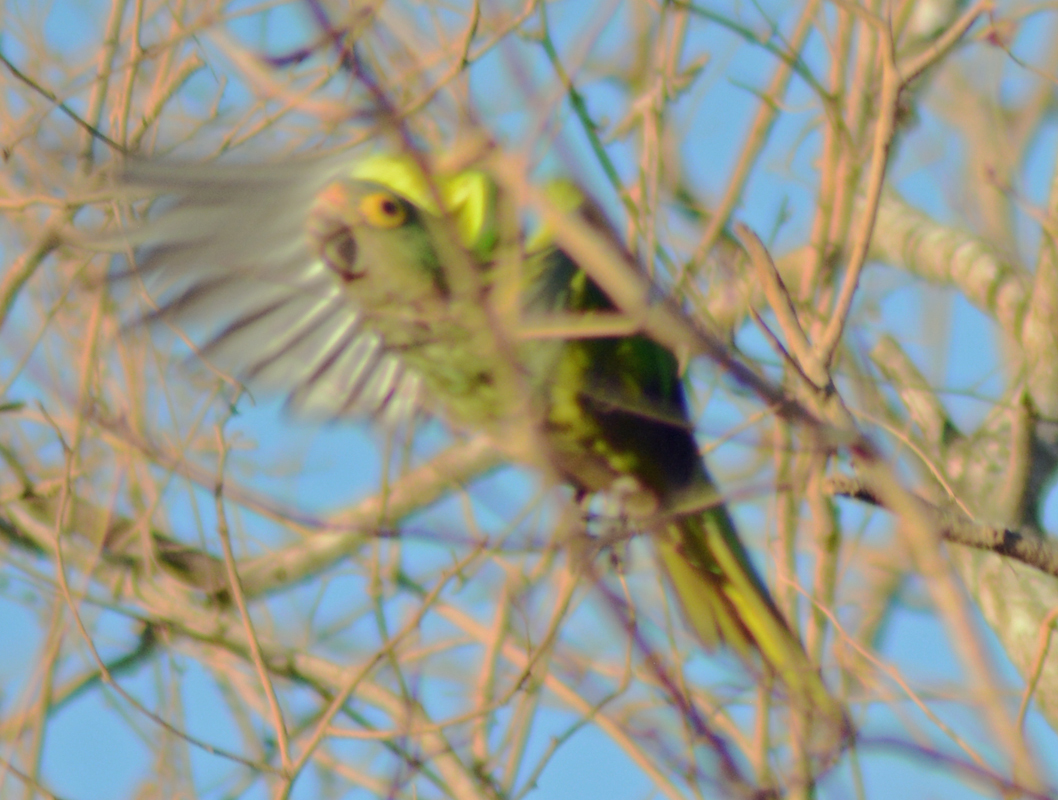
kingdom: Animalia
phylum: Chordata
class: Aves
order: Psittaciformes
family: Psittacidae
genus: Aratinga
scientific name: Aratinga canicularis
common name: Orange-fronted parakeet
